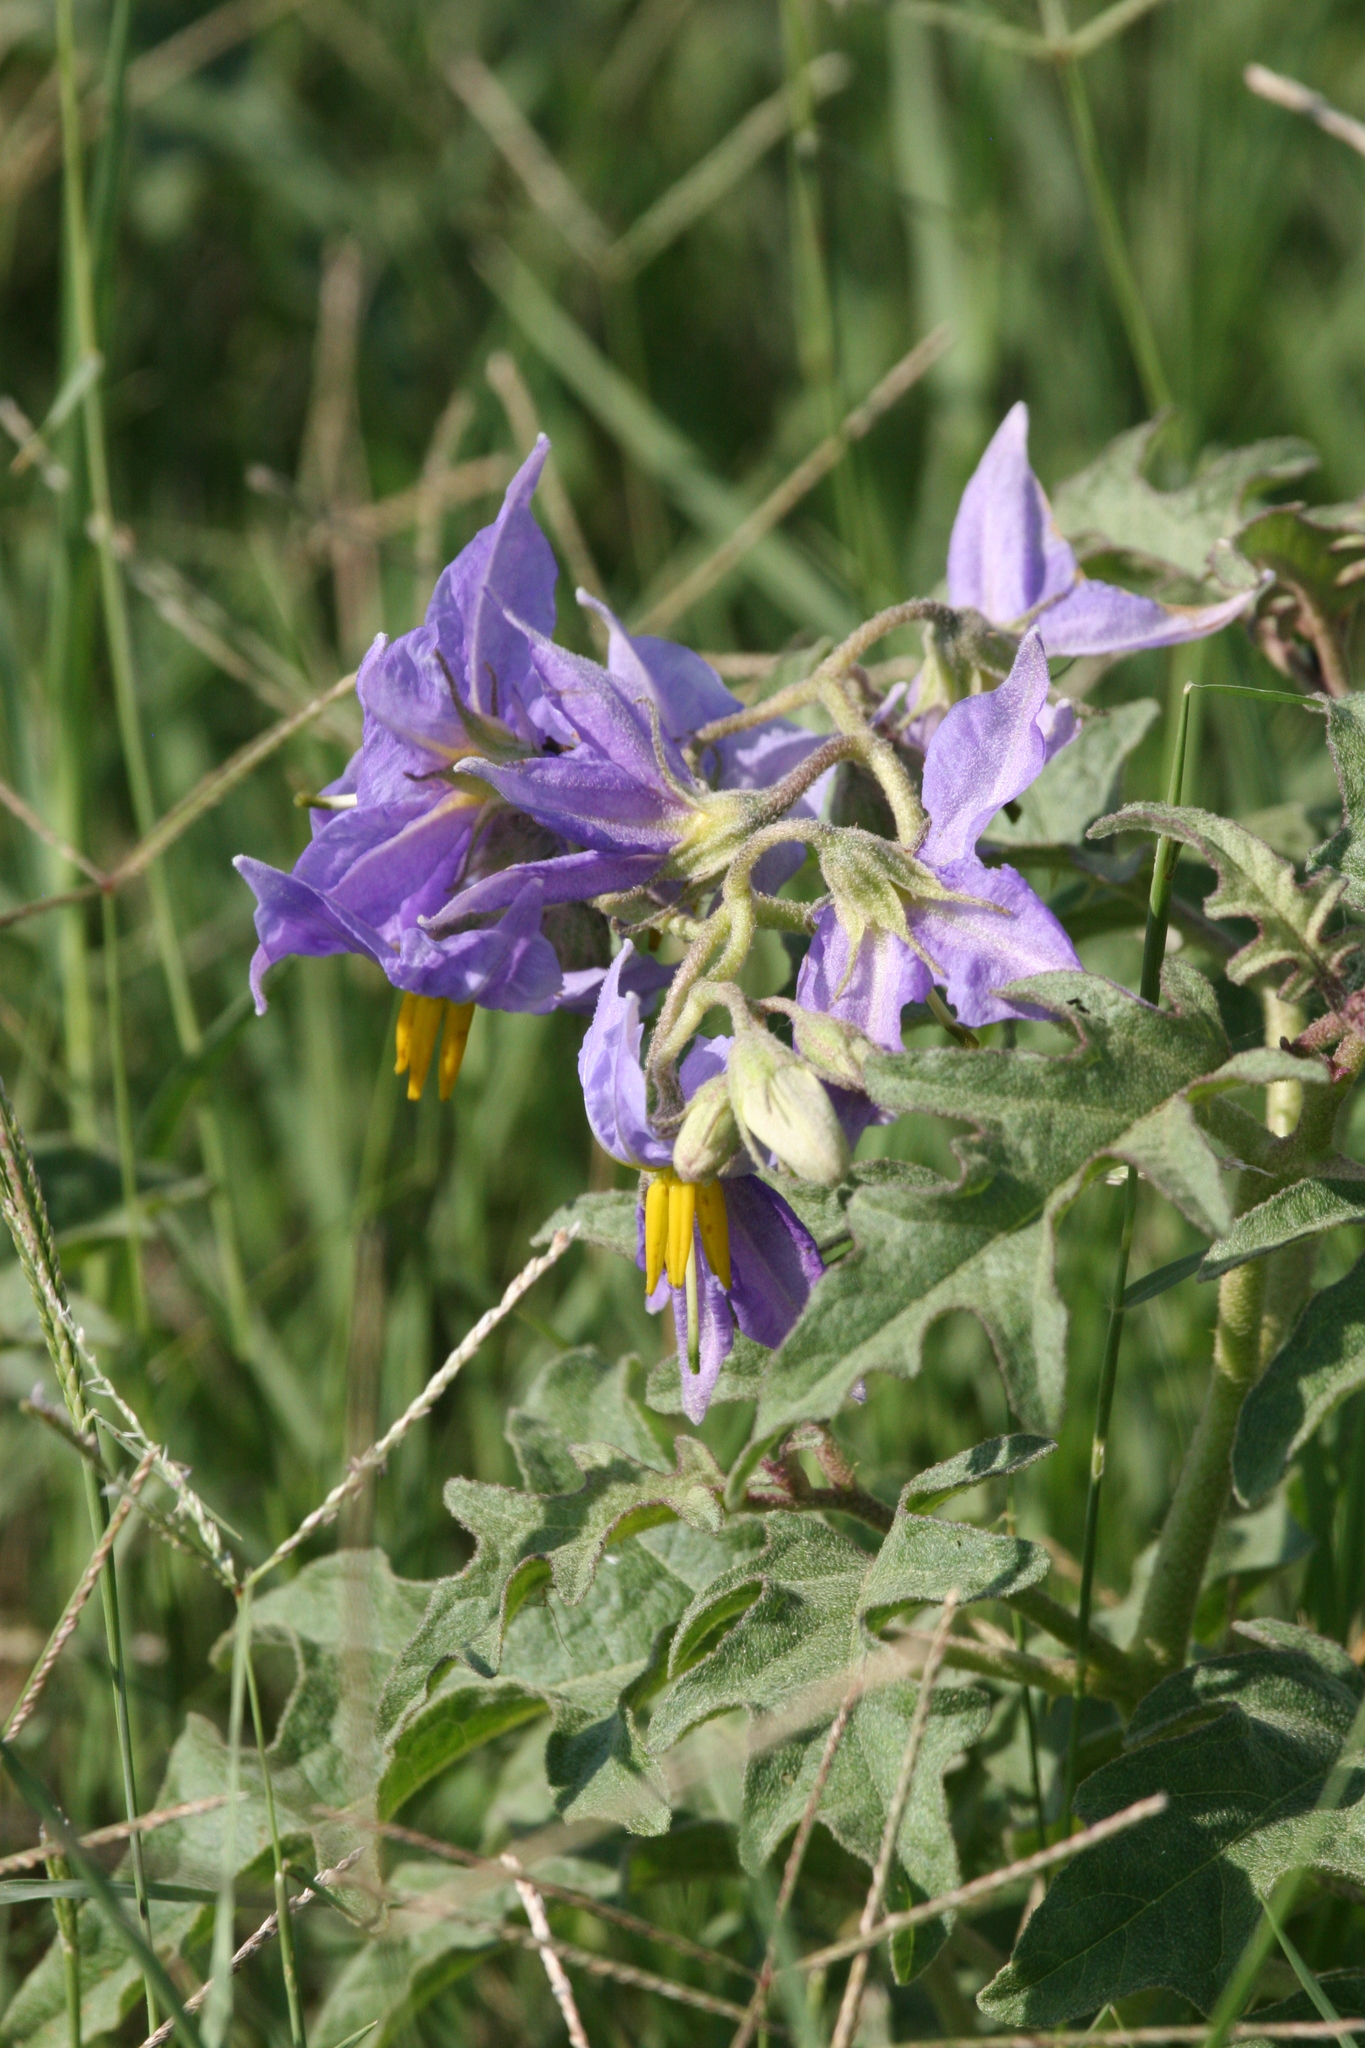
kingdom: Plantae
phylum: Tracheophyta
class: Magnoliopsida
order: Solanales
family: Solanaceae
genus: Solanum
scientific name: Solanum dimidiatum
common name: Carolina horse-nettle
